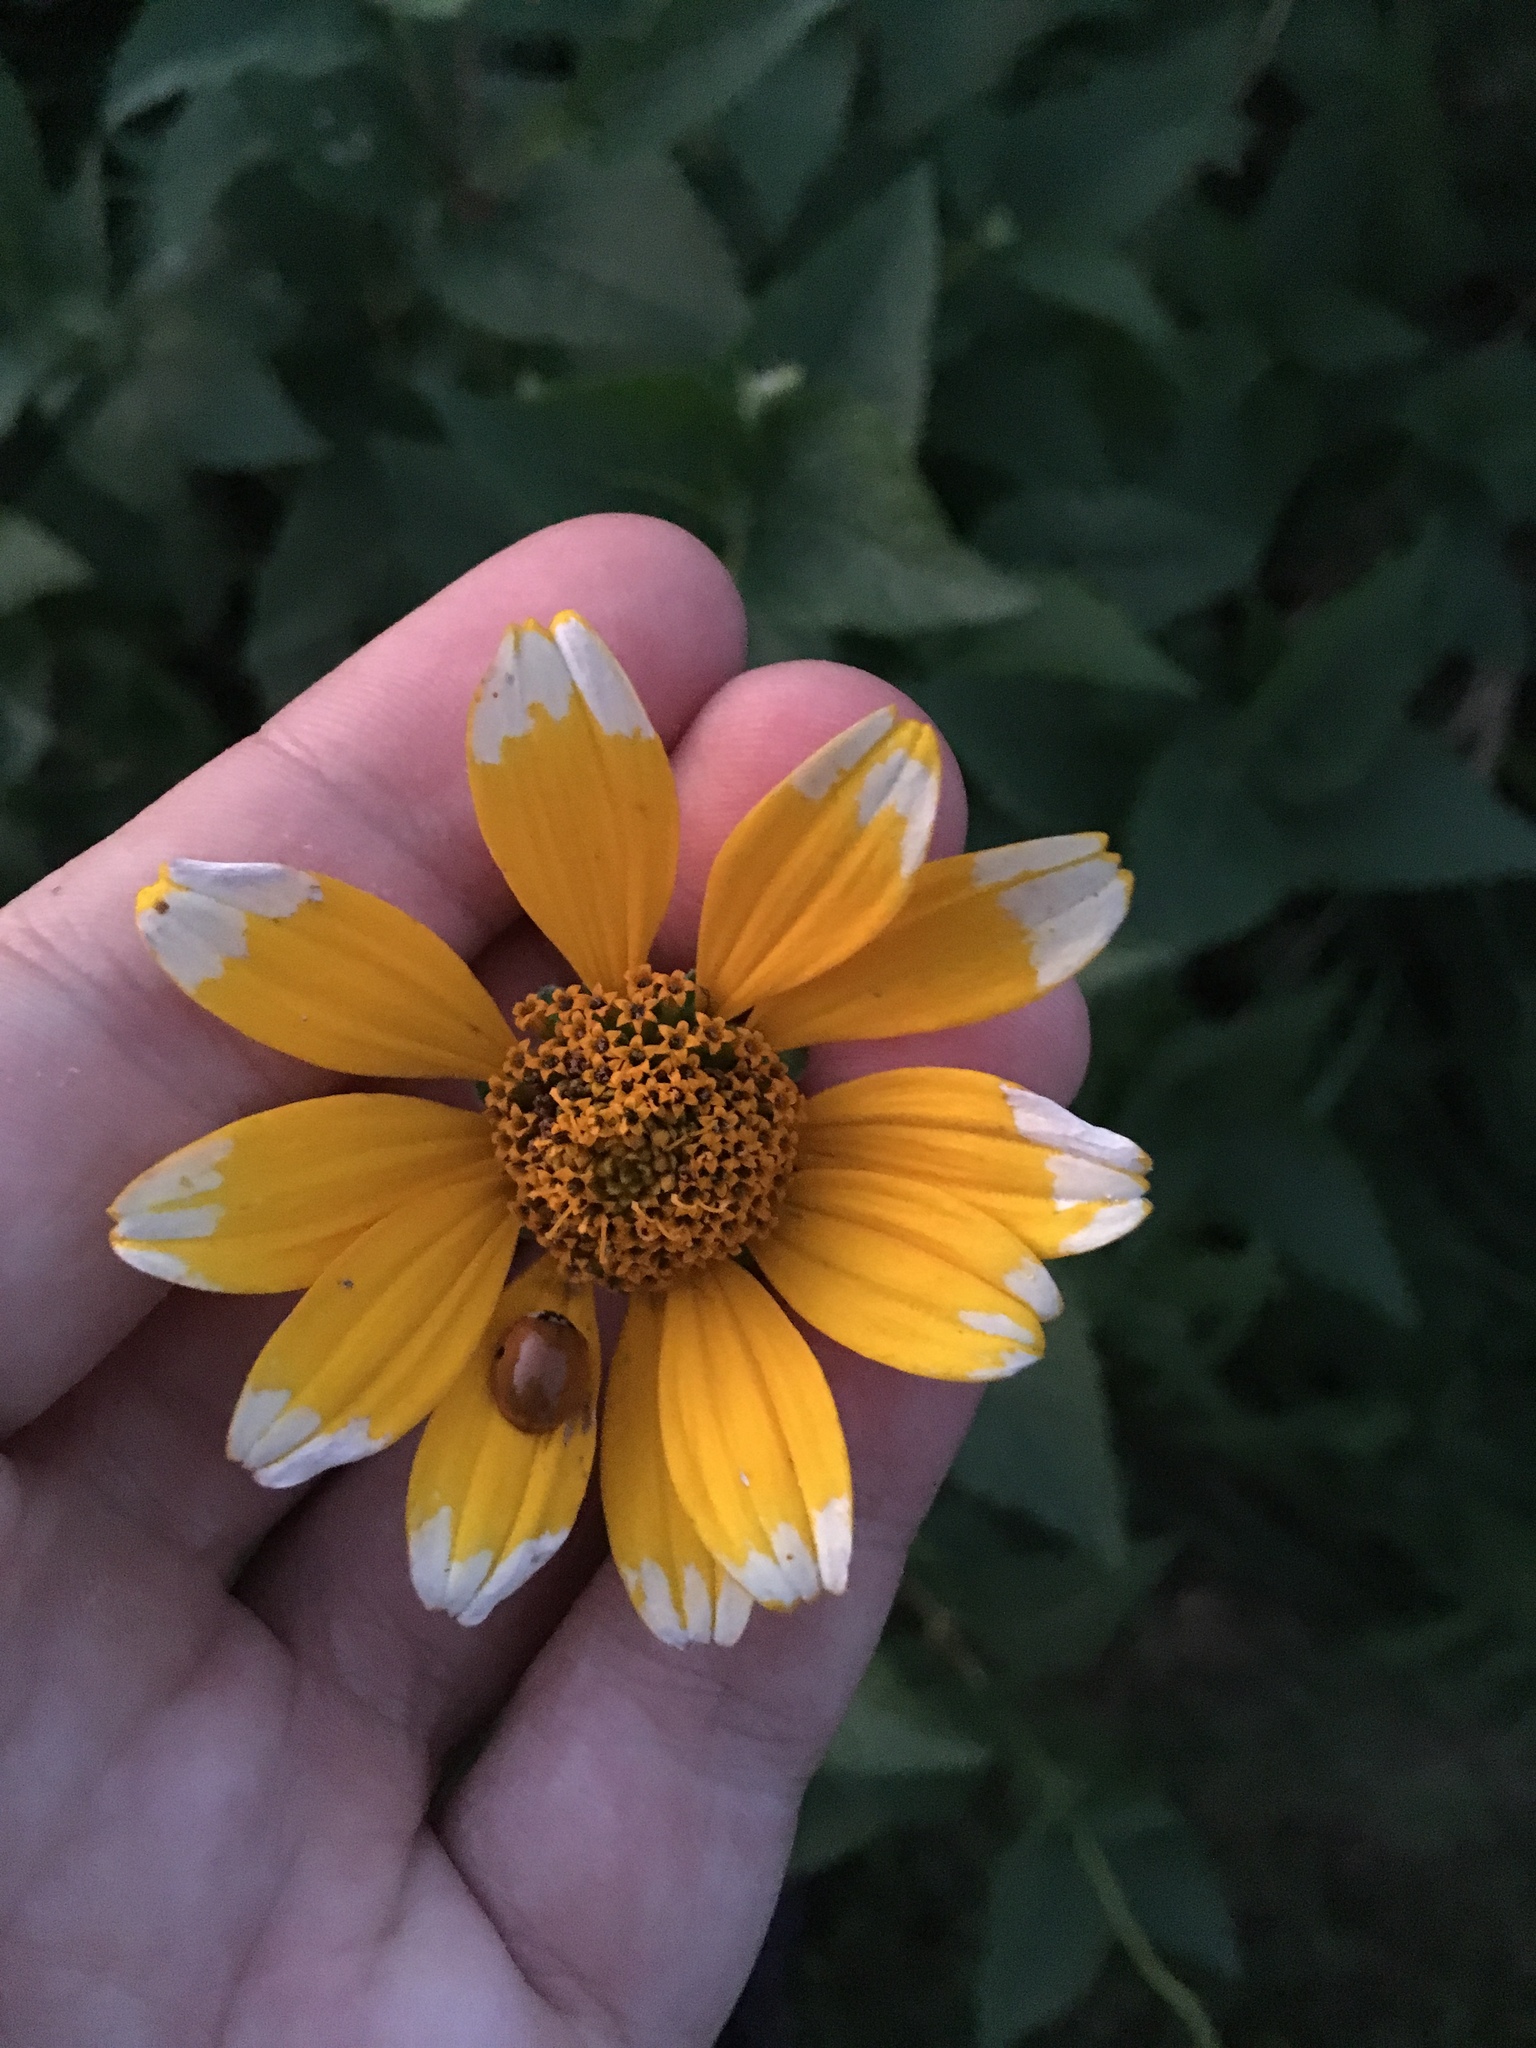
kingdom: Plantae
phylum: Tracheophyta
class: Magnoliopsida
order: Asterales
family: Asteraceae
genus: Heliopsis
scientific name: Heliopsis helianthoides
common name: False sunflower
